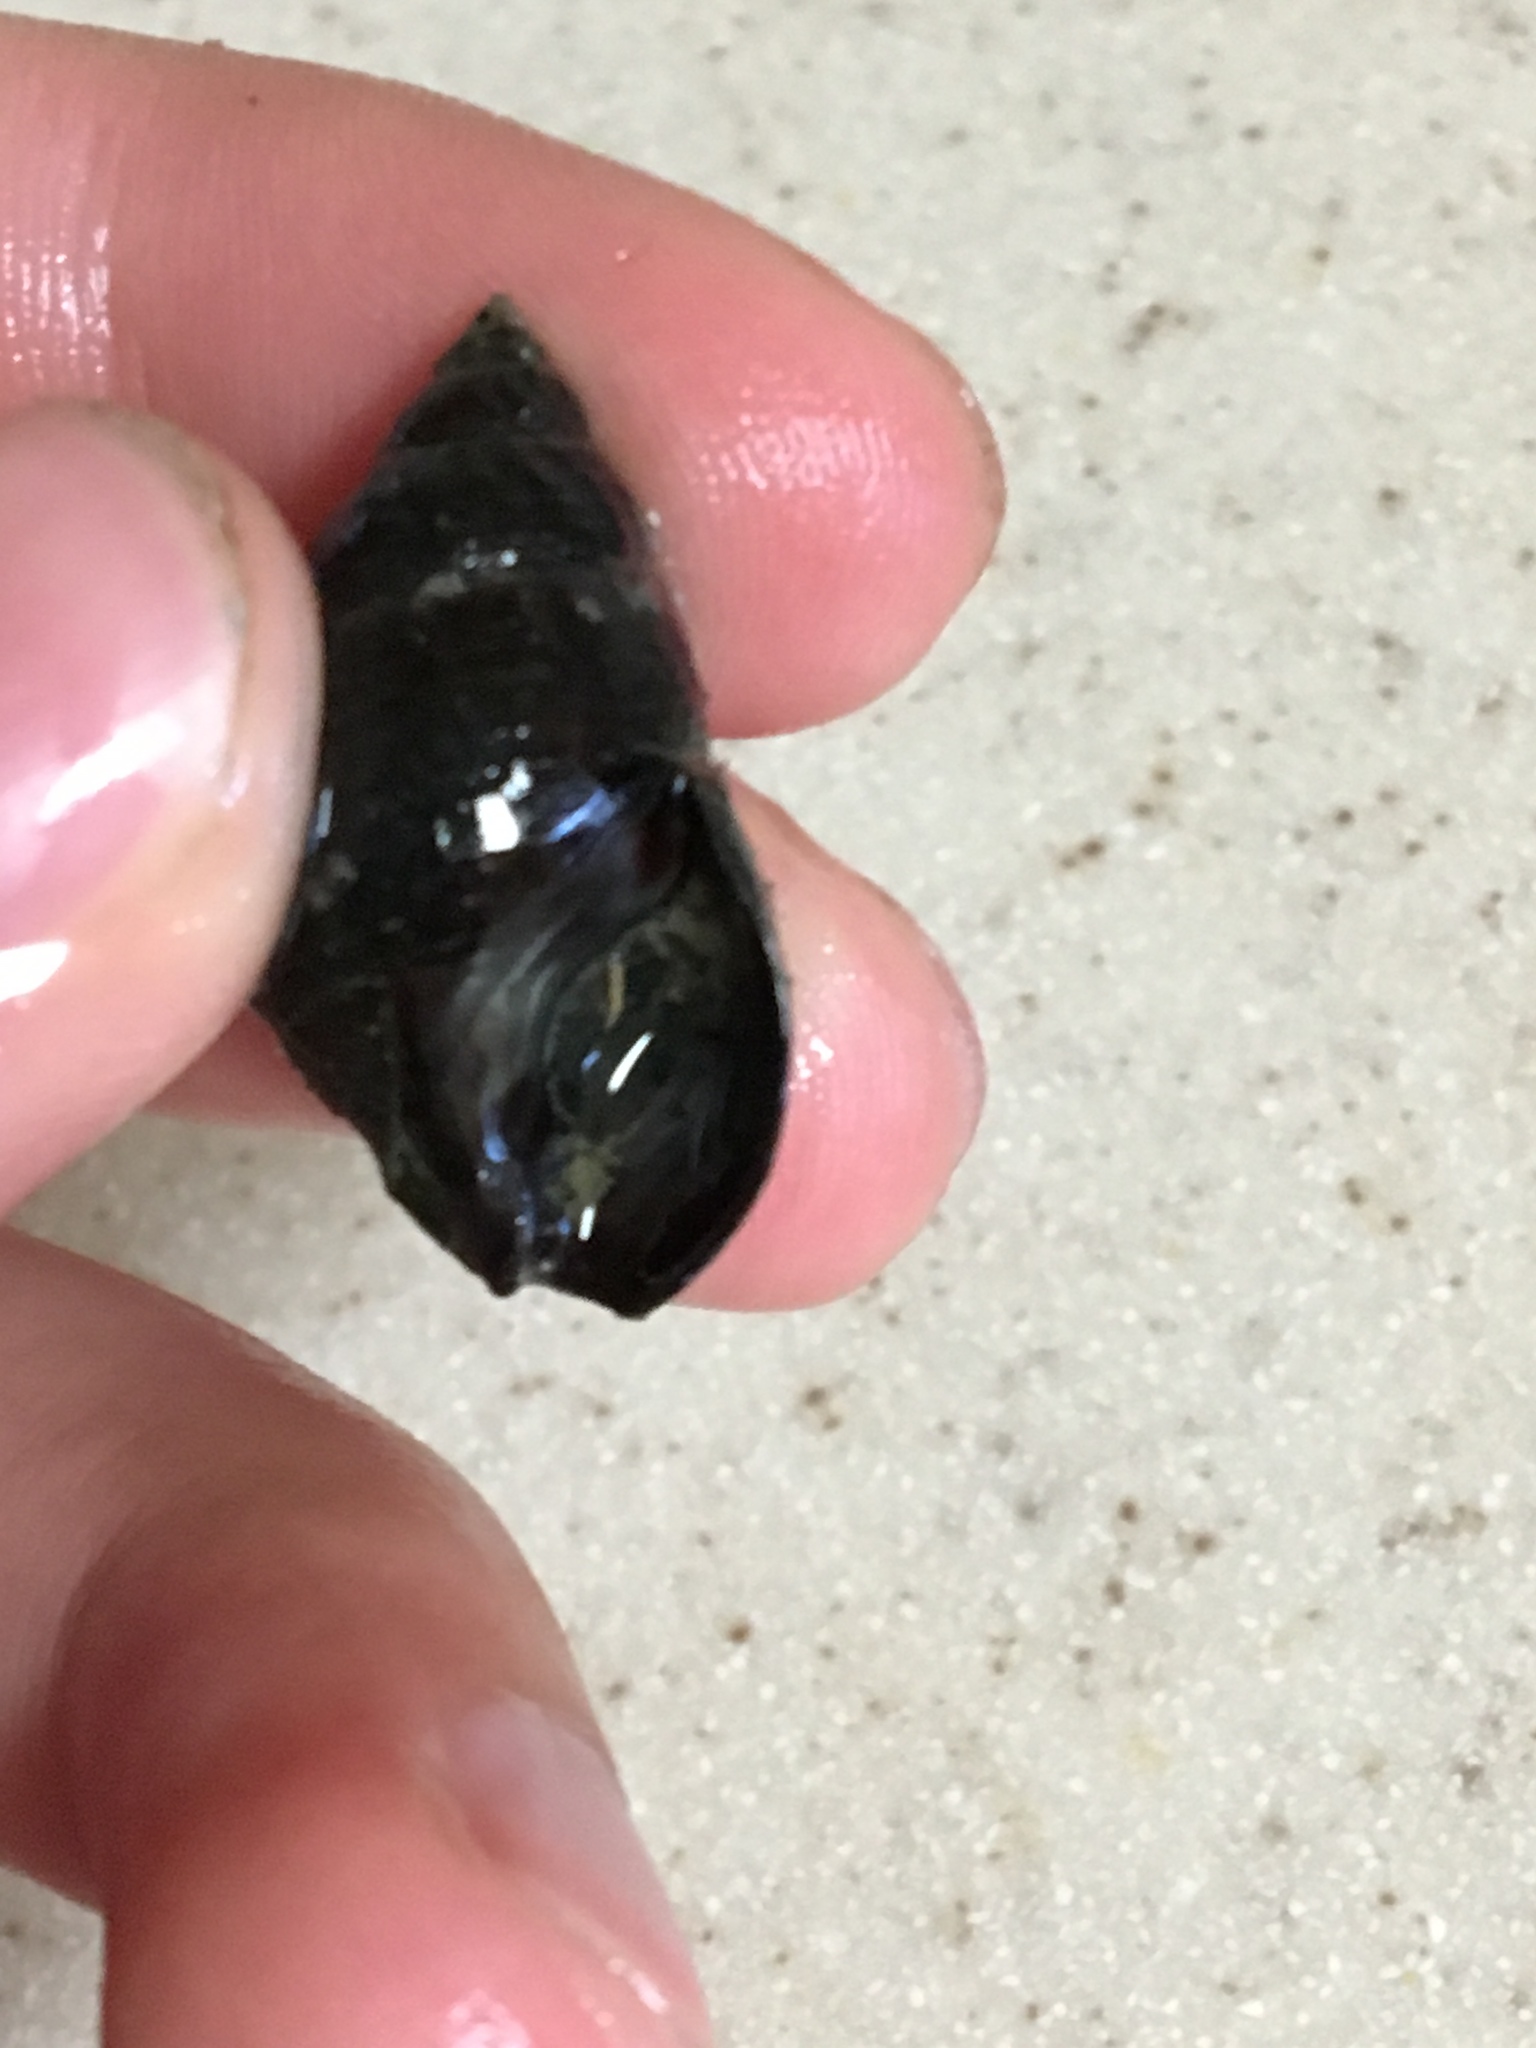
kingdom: Animalia
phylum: Mollusca
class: Gastropoda
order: Neogastropoda
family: Nassariidae
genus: Ilyanassa
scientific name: Ilyanassa obsoleta
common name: Eastern mudsnail
